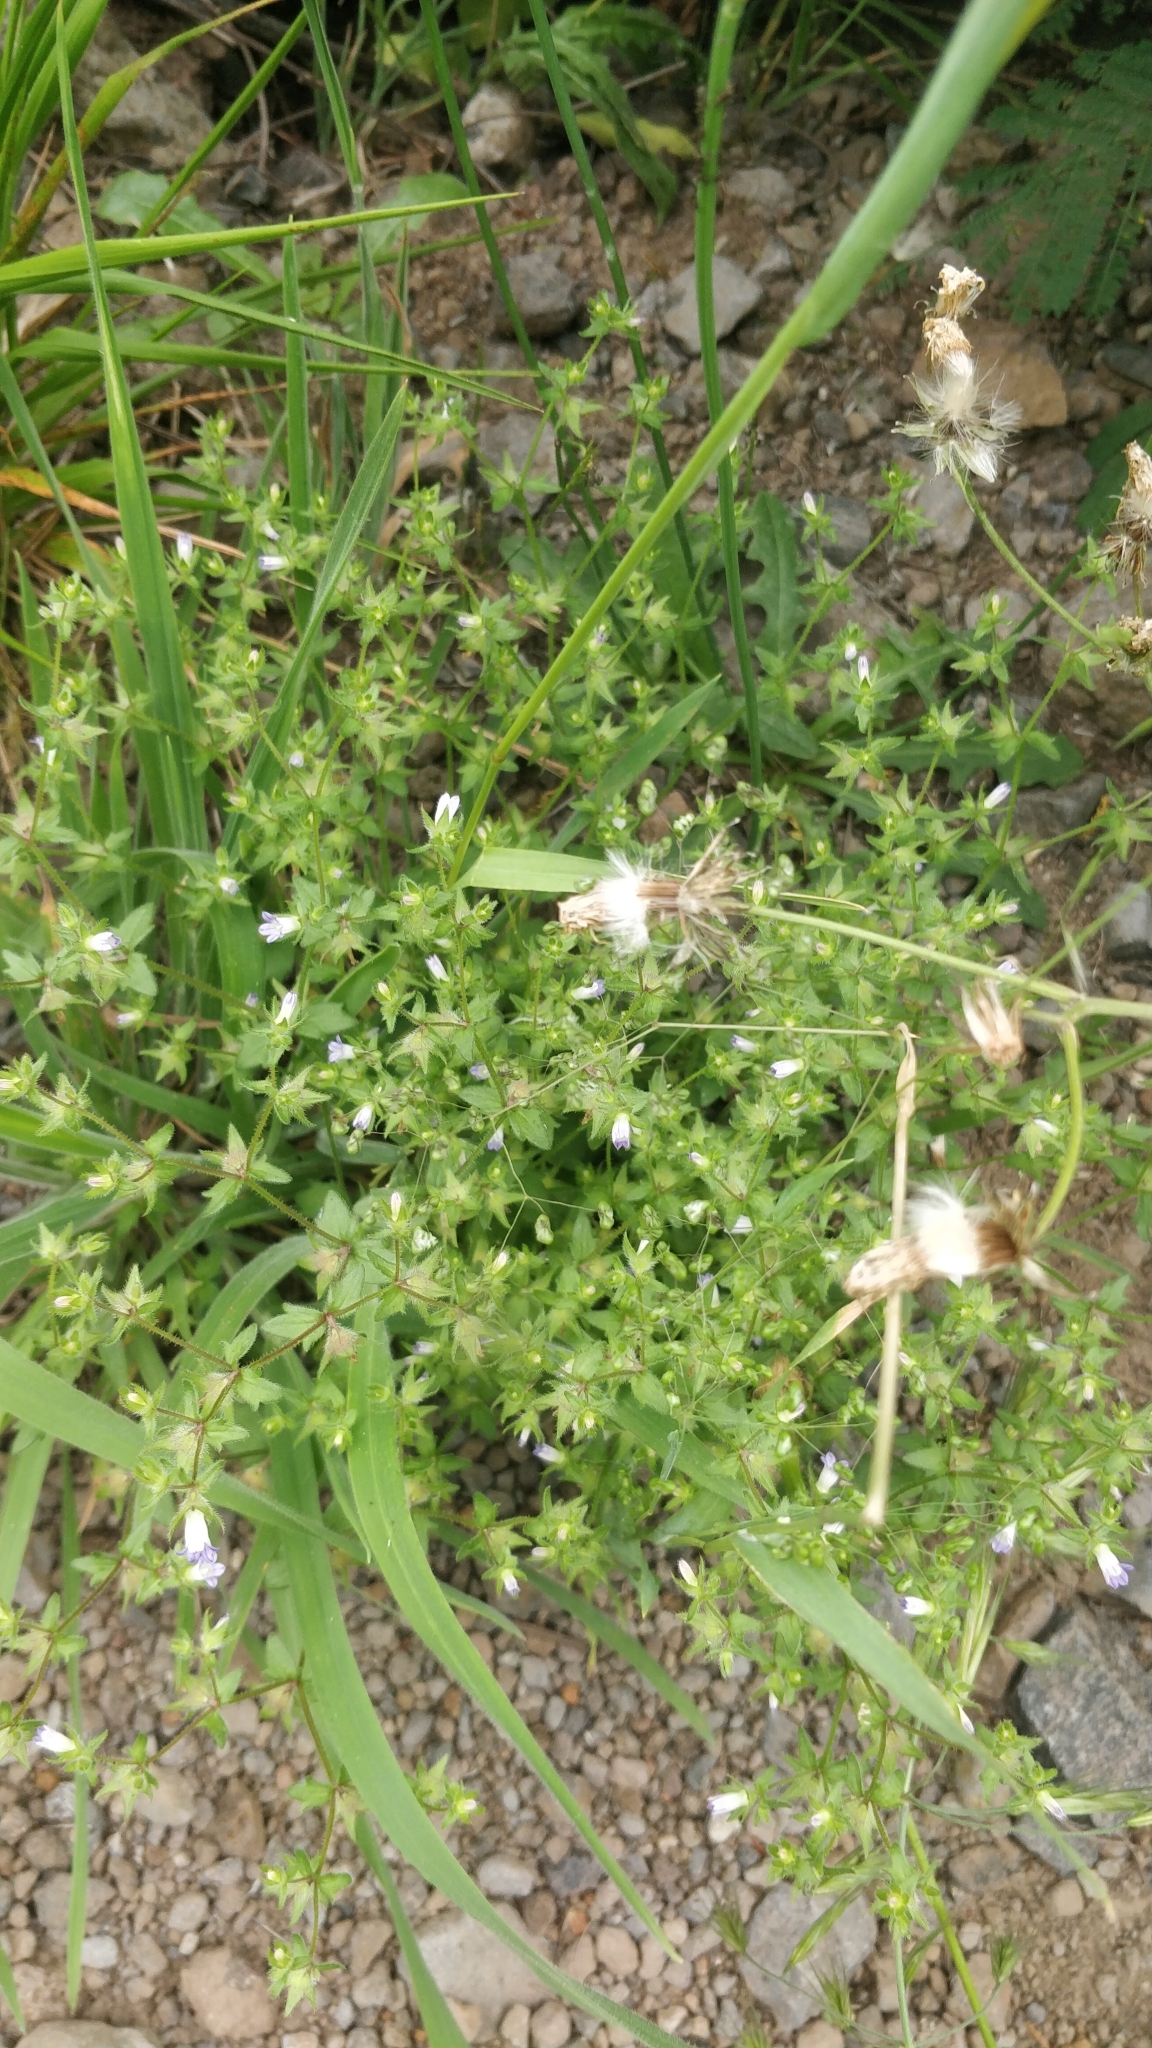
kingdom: Plantae
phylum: Tracheophyta
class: Magnoliopsida
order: Asterales
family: Campanulaceae
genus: Campanula
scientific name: Campanula erinus
